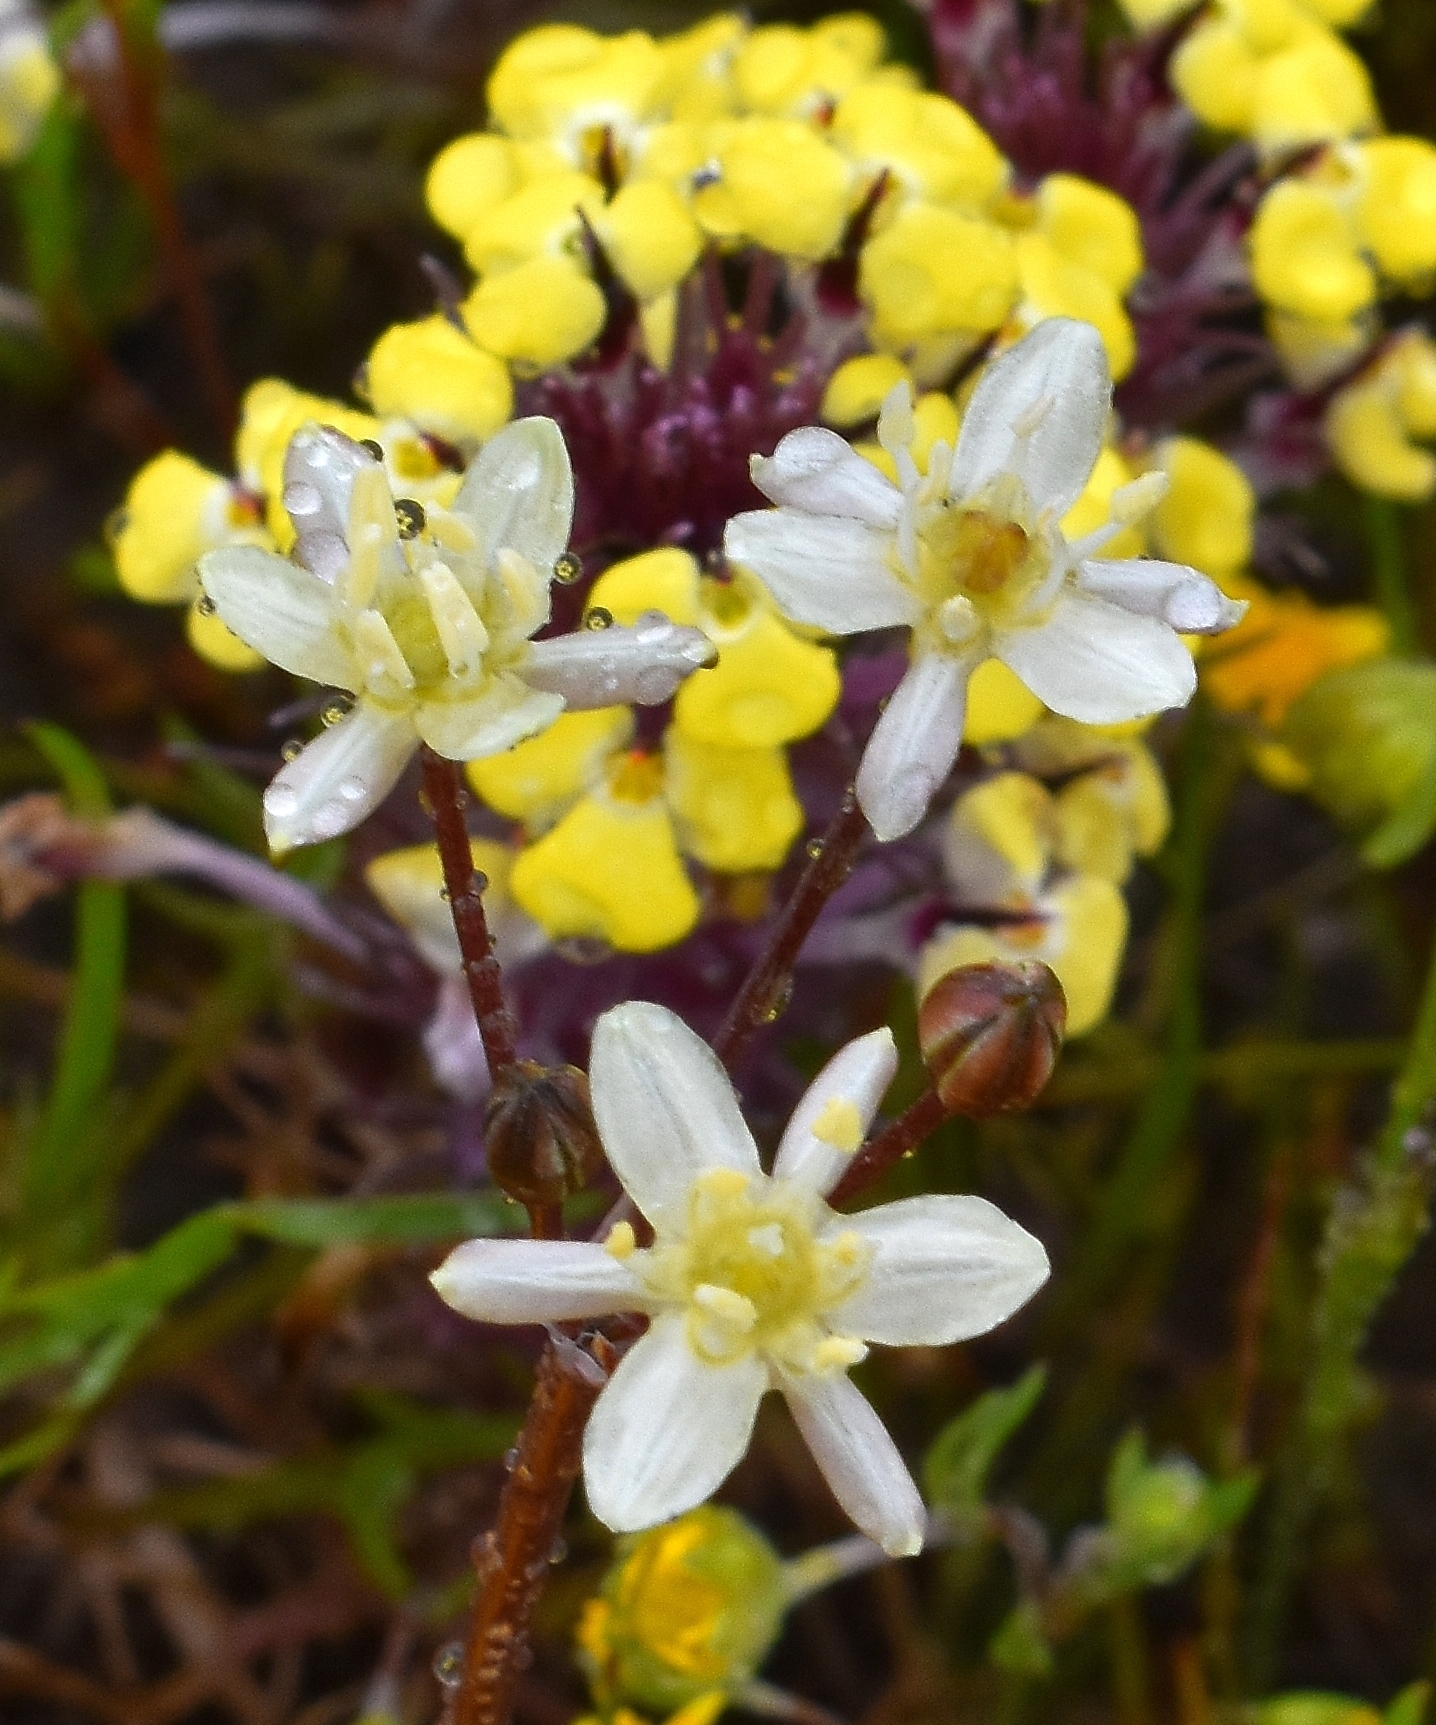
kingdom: Plantae
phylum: Tracheophyta
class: Liliopsida
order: Asparagales
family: Asparagaceae
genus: Muilla
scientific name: Muilla maritima
